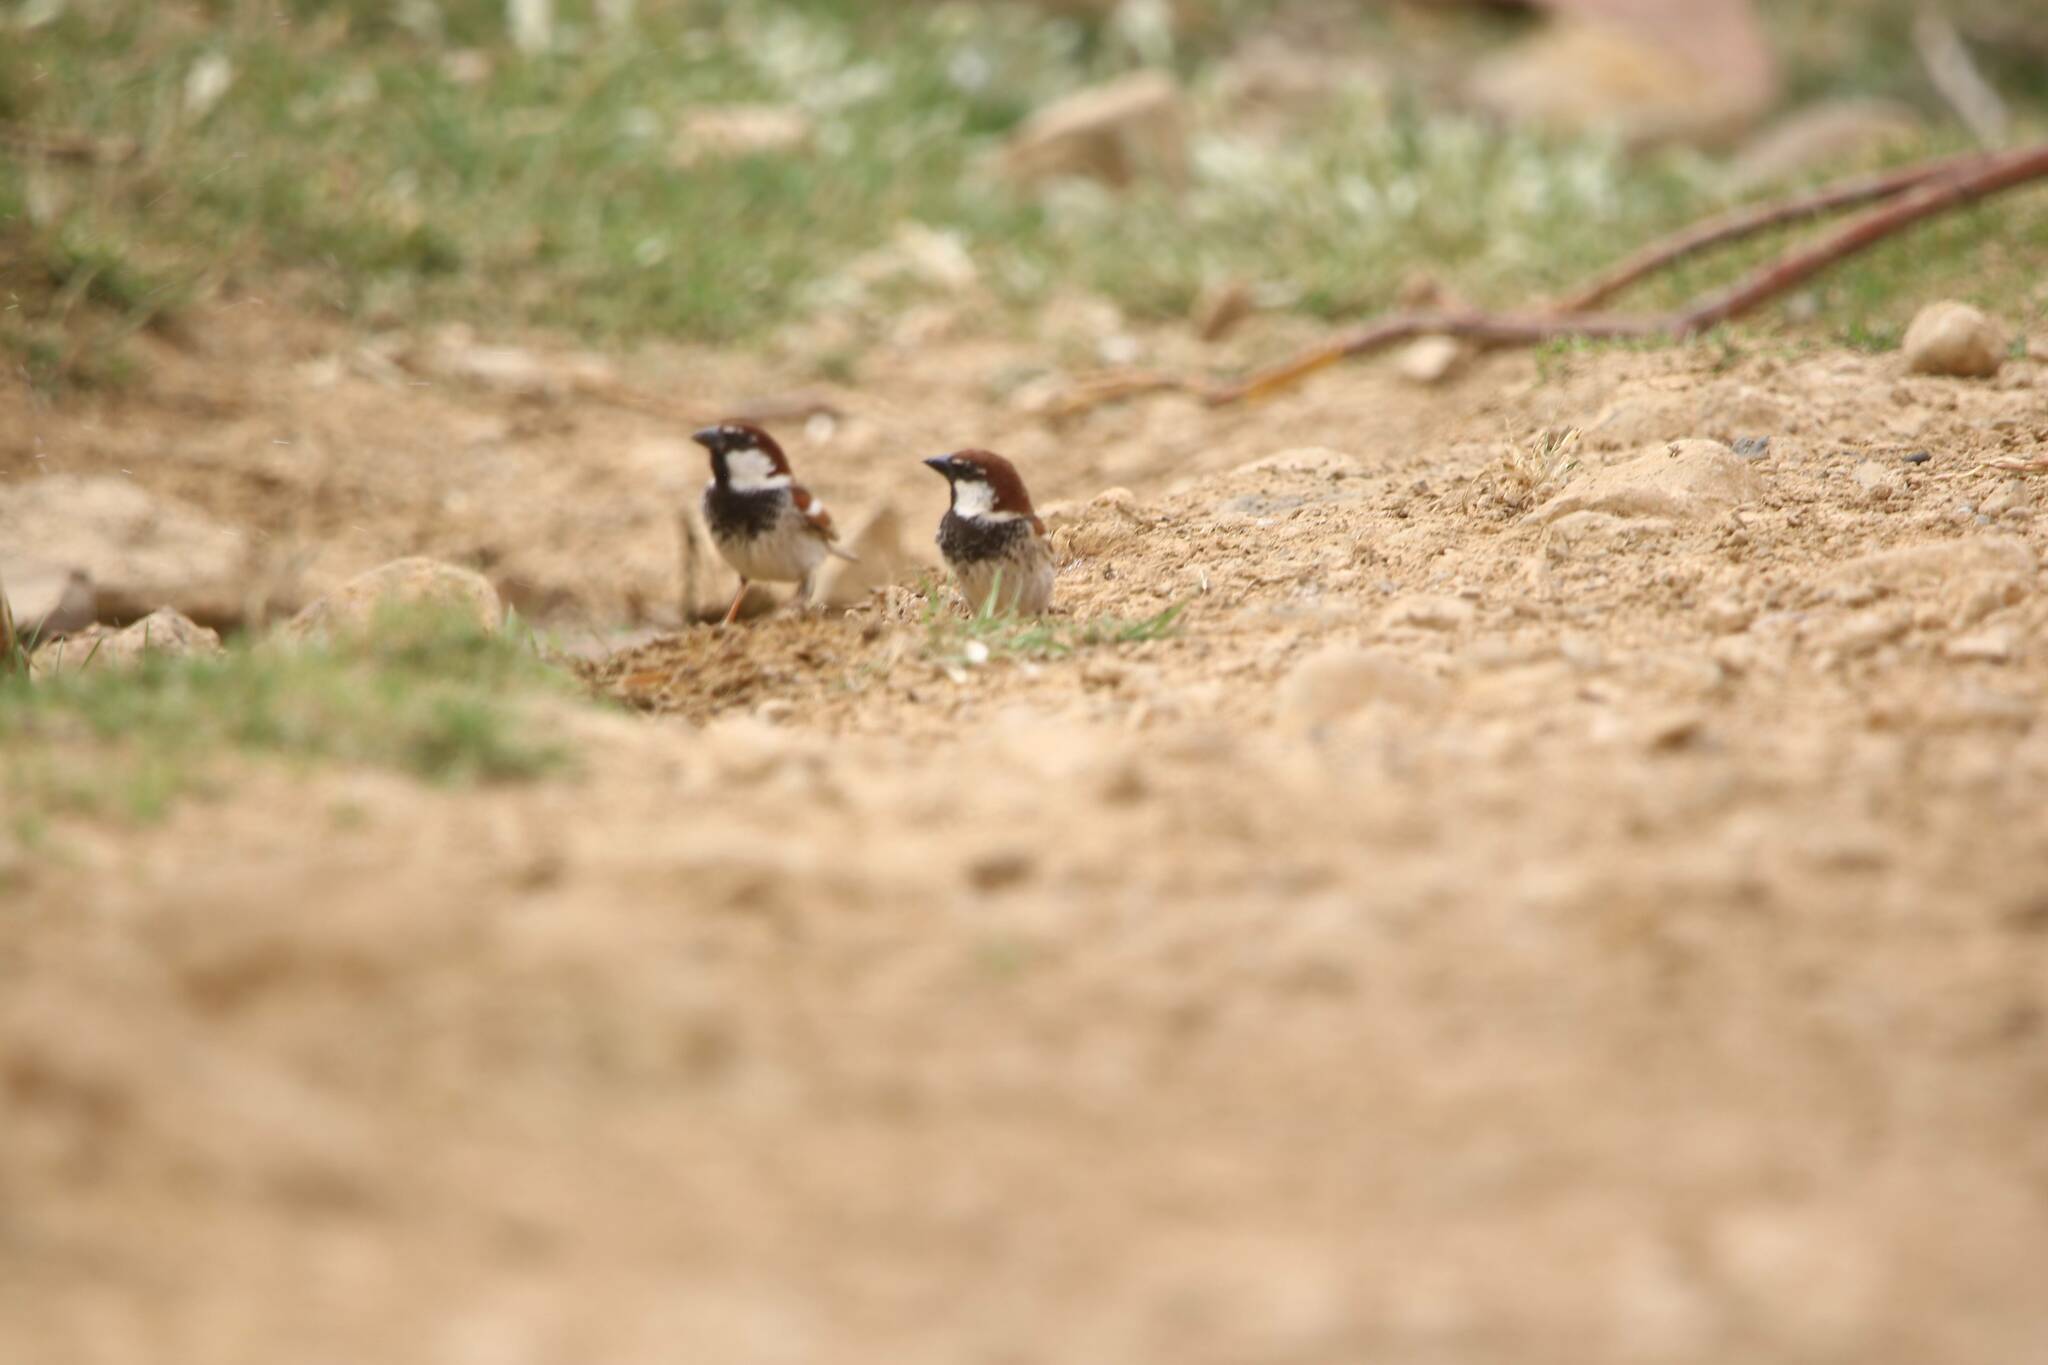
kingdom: Animalia
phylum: Chordata
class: Aves
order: Passeriformes
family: Passeridae
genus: Passer
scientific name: Passer hispaniolensis
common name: Spanish sparrow
